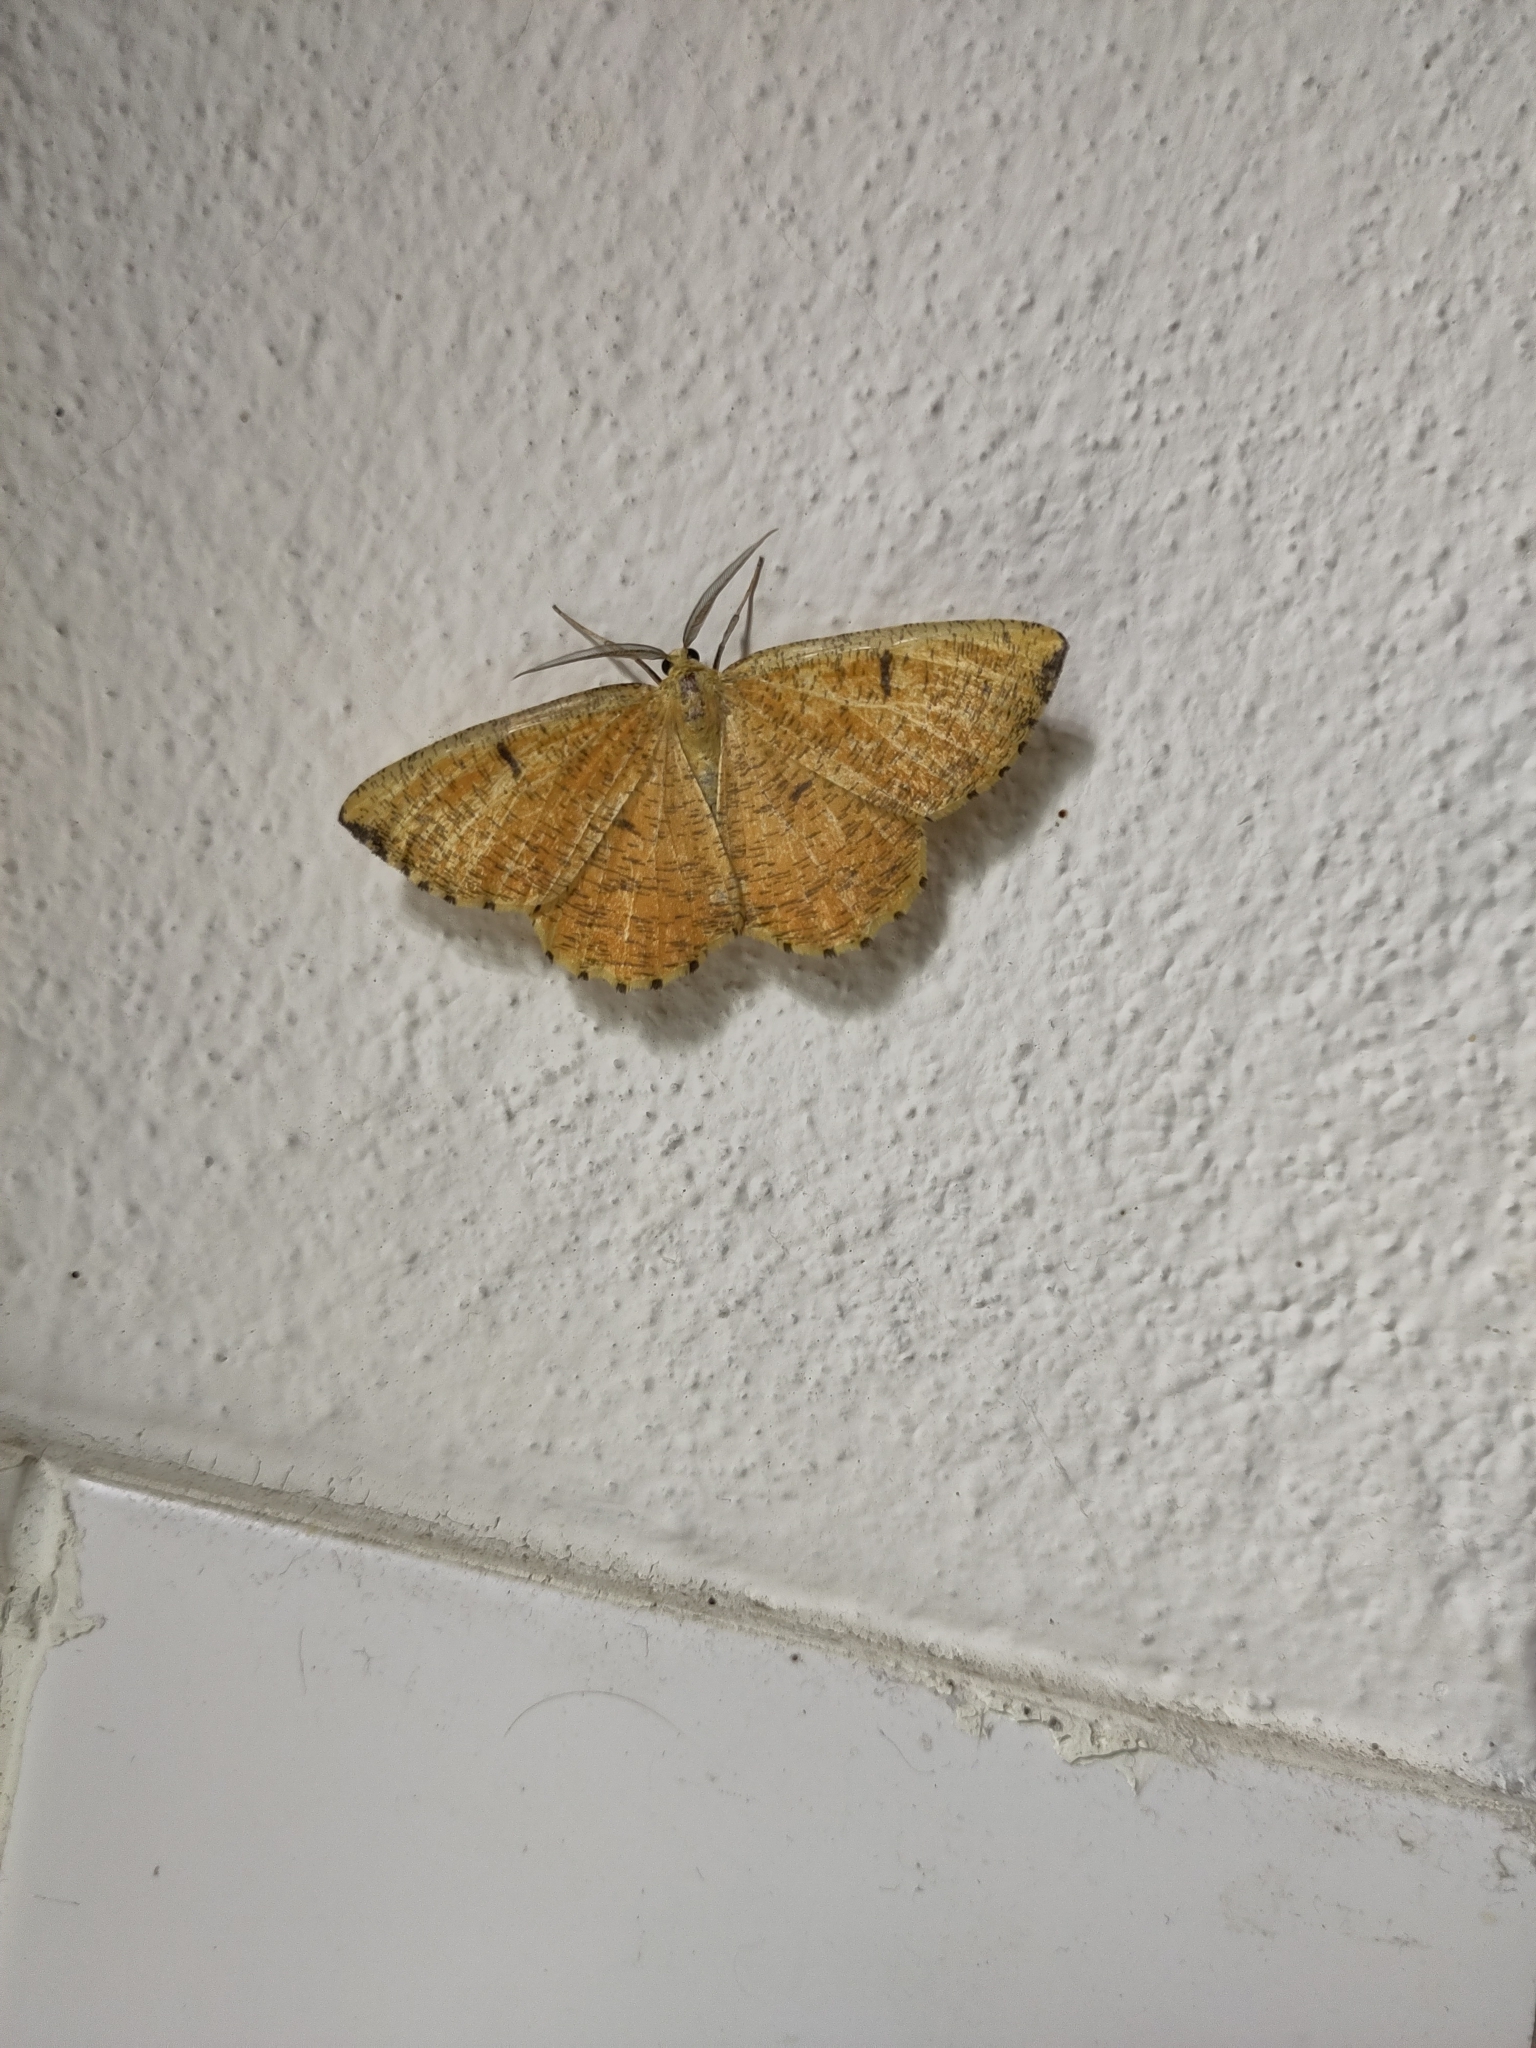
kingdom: Animalia
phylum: Arthropoda
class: Insecta
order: Lepidoptera
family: Geometridae
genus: Angerona
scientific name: Angerona prunaria
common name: Orange moth
